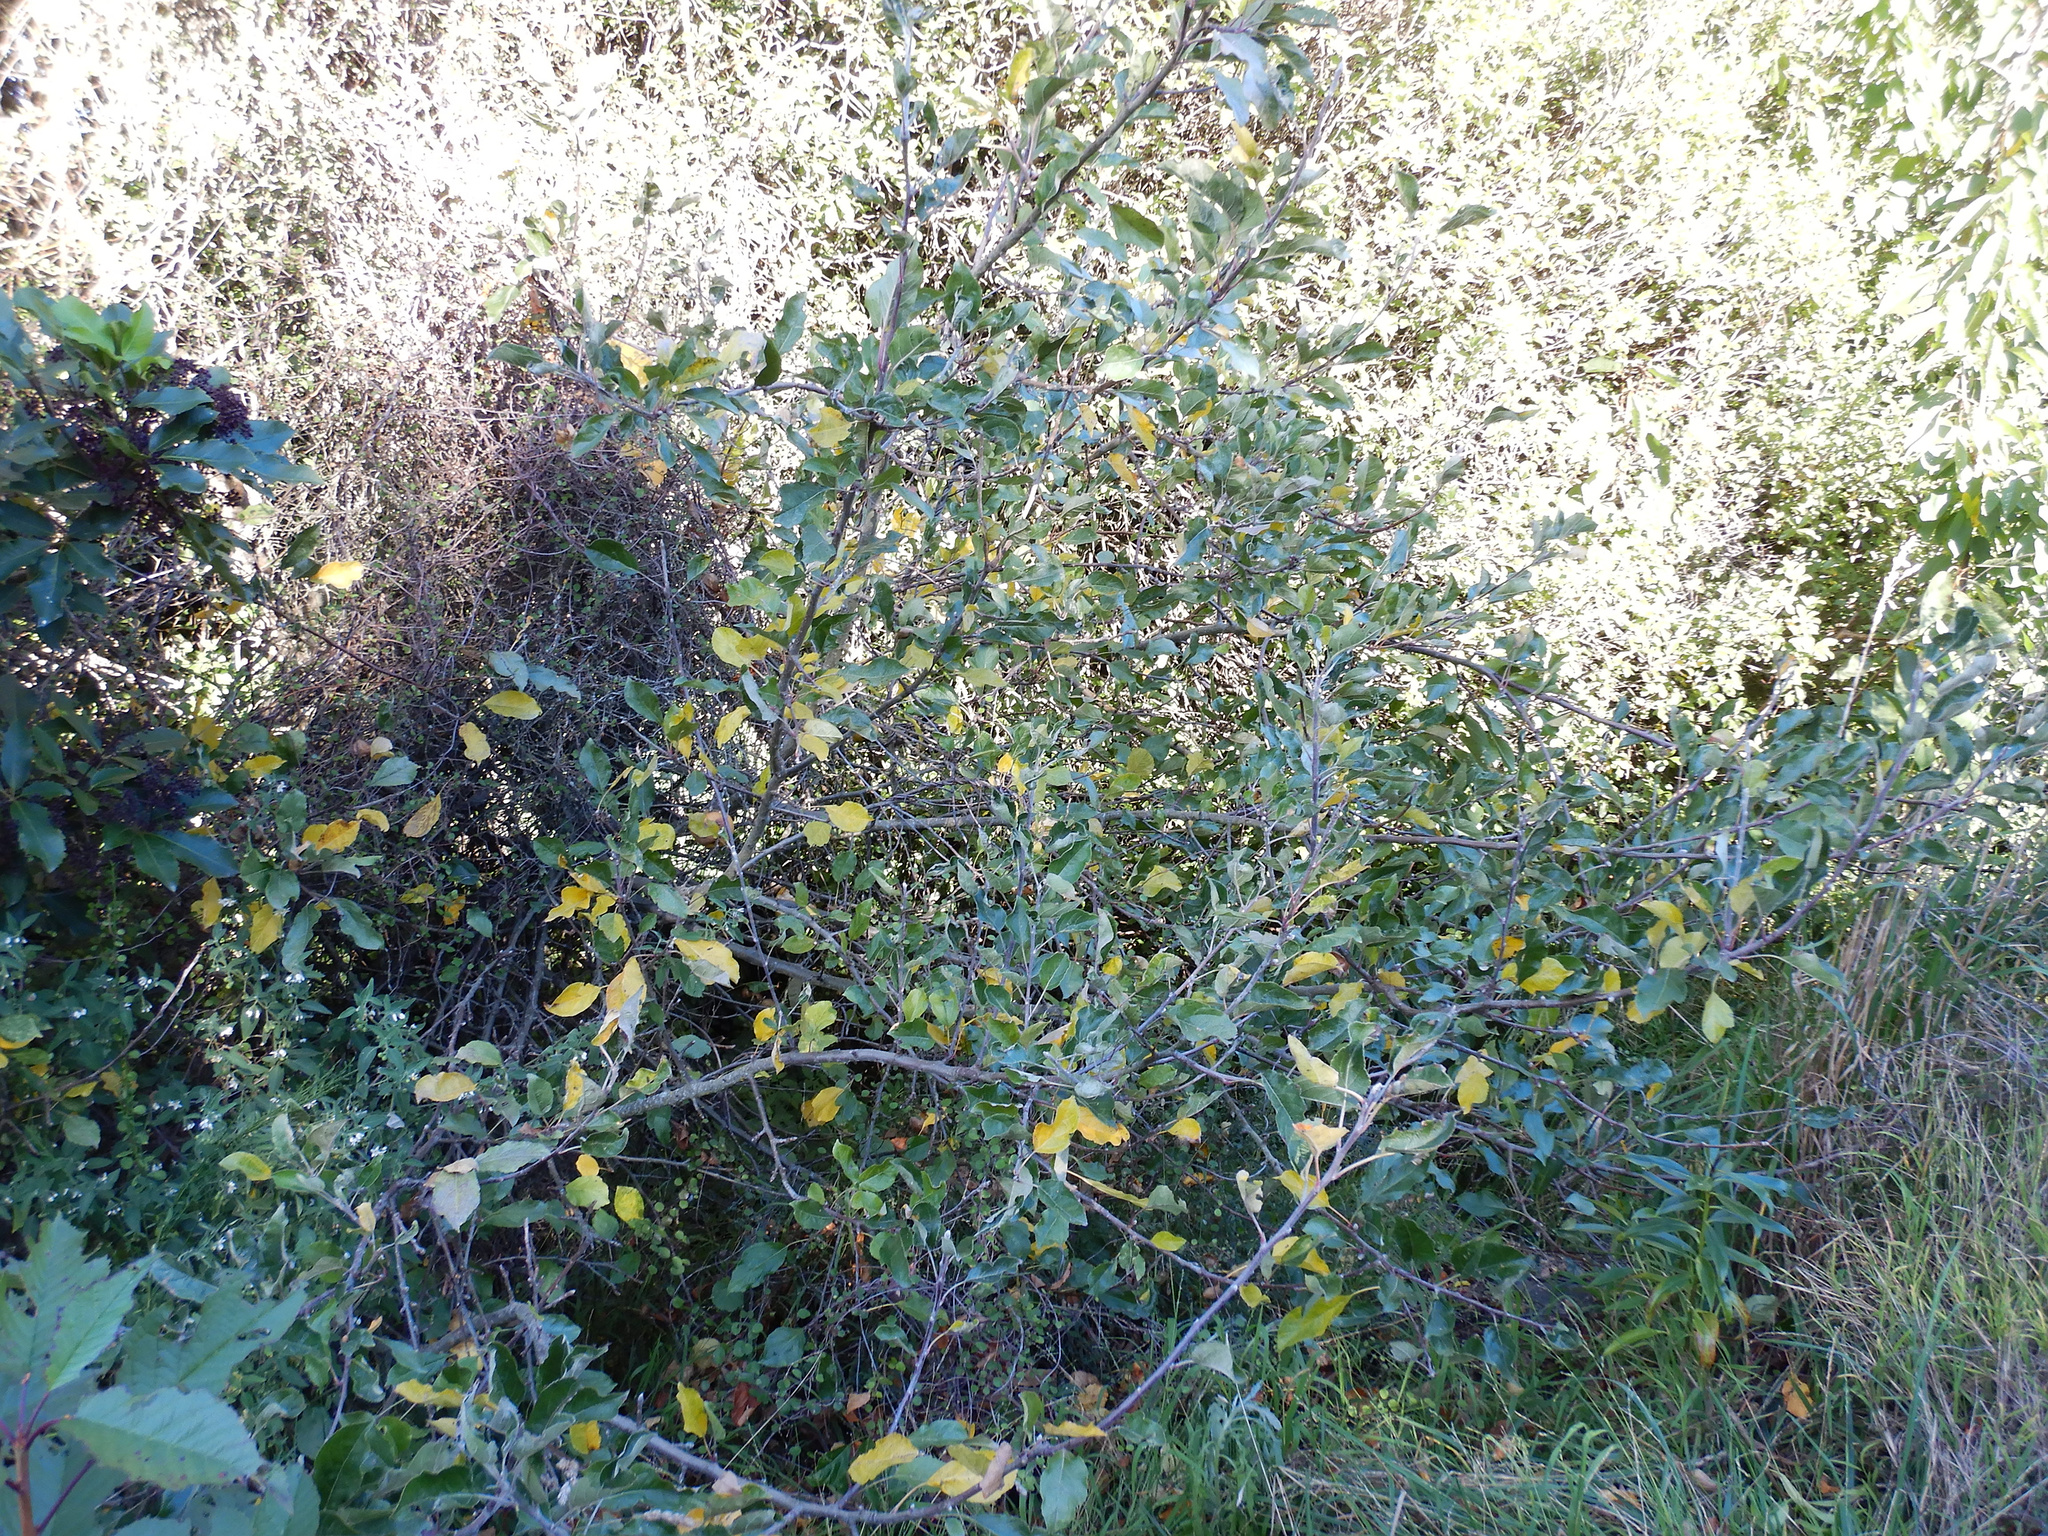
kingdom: Plantae
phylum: Tracheophyta
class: Magnoliopsida
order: Rosales
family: Rosaceae
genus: Malus
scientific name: Malus domestica
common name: Apple
